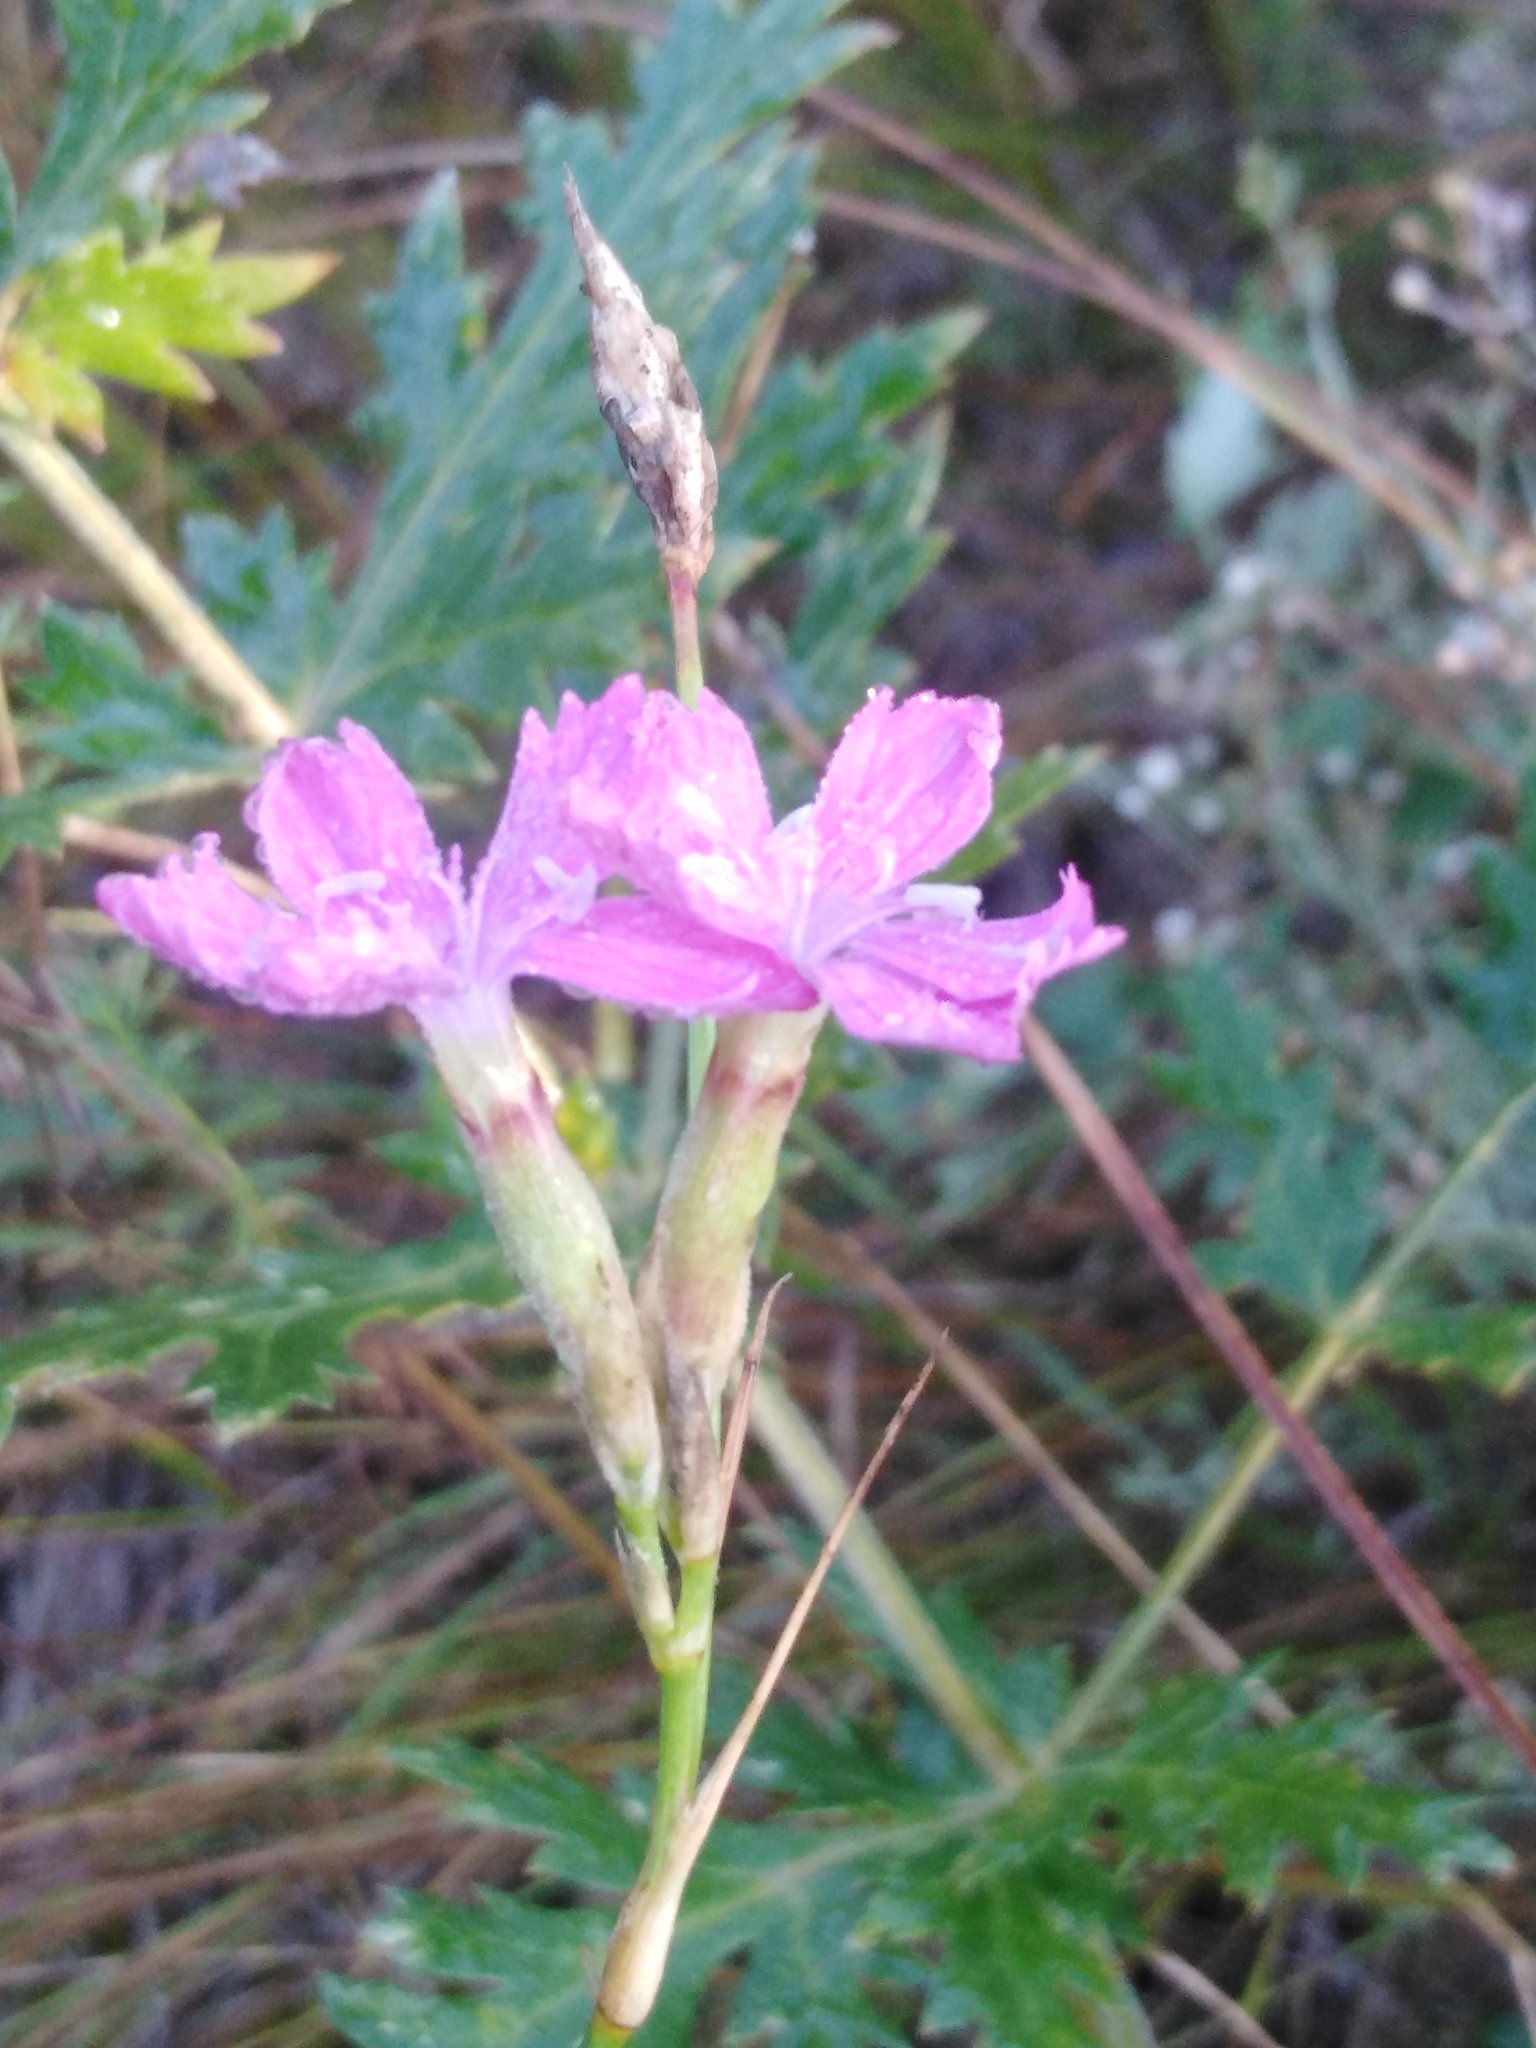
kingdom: Plantae
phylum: Tracheophyta
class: Magnoliopsida
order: Caryophyllales
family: Caryophyllaceae
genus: Dianthus
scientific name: Dianthus borbasii
